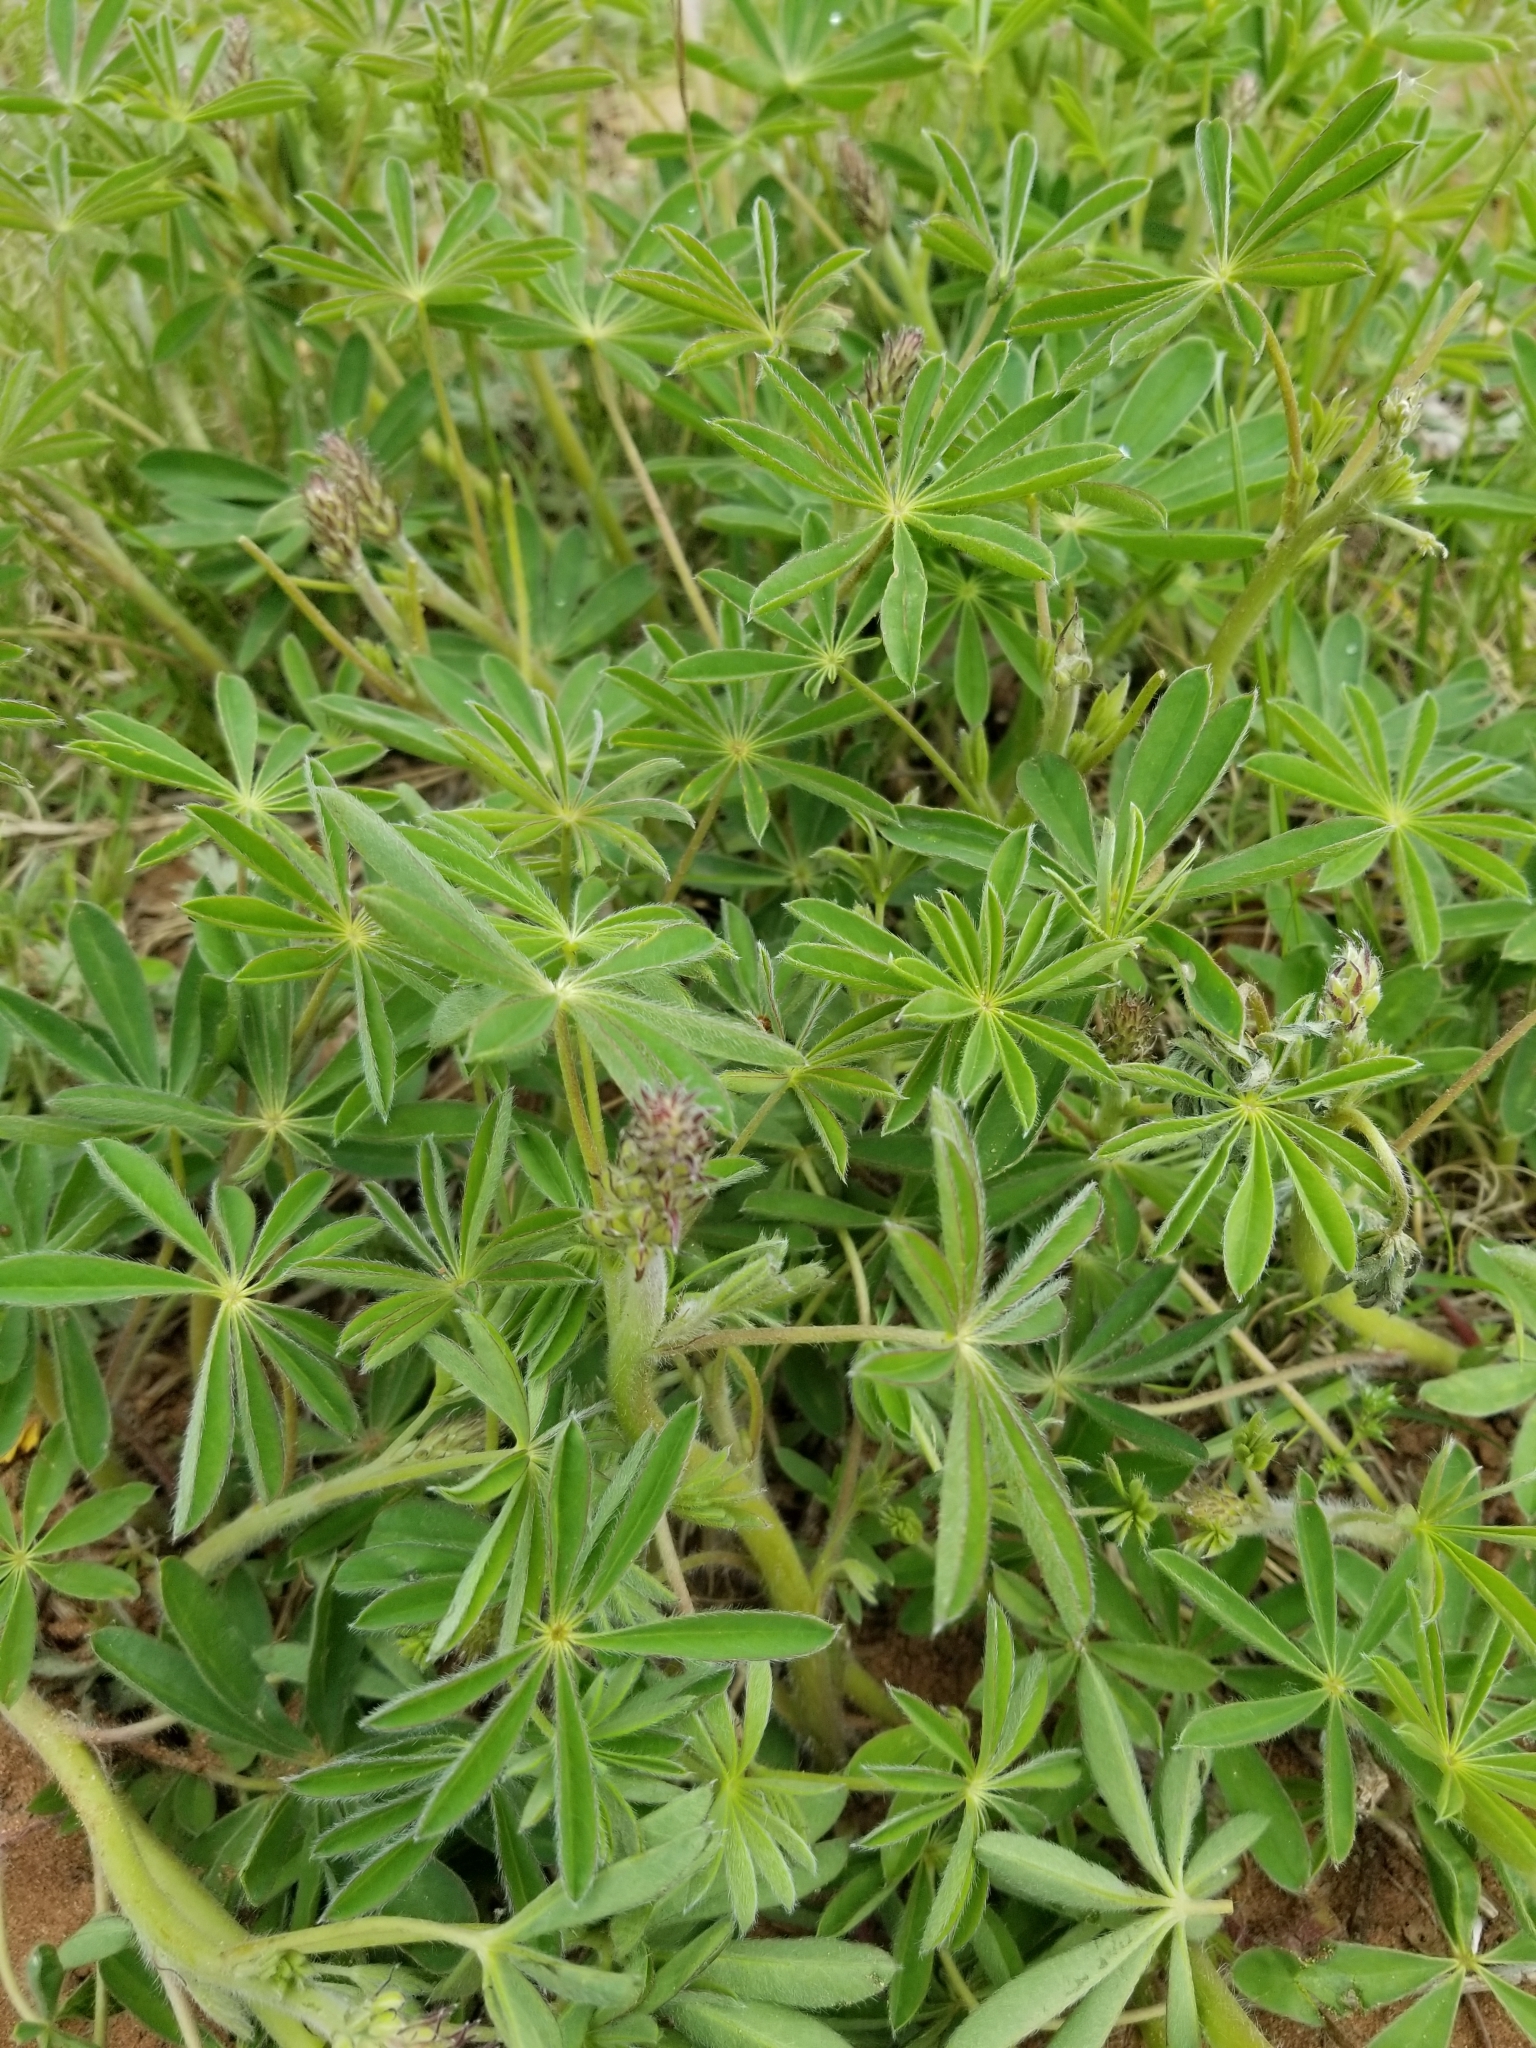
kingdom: Plantae
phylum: Tracheophyta
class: Magnoliopsida
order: Fabales
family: Fabaceae
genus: Lupinus
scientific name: Lupinus perennis
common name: Sundial lupine
